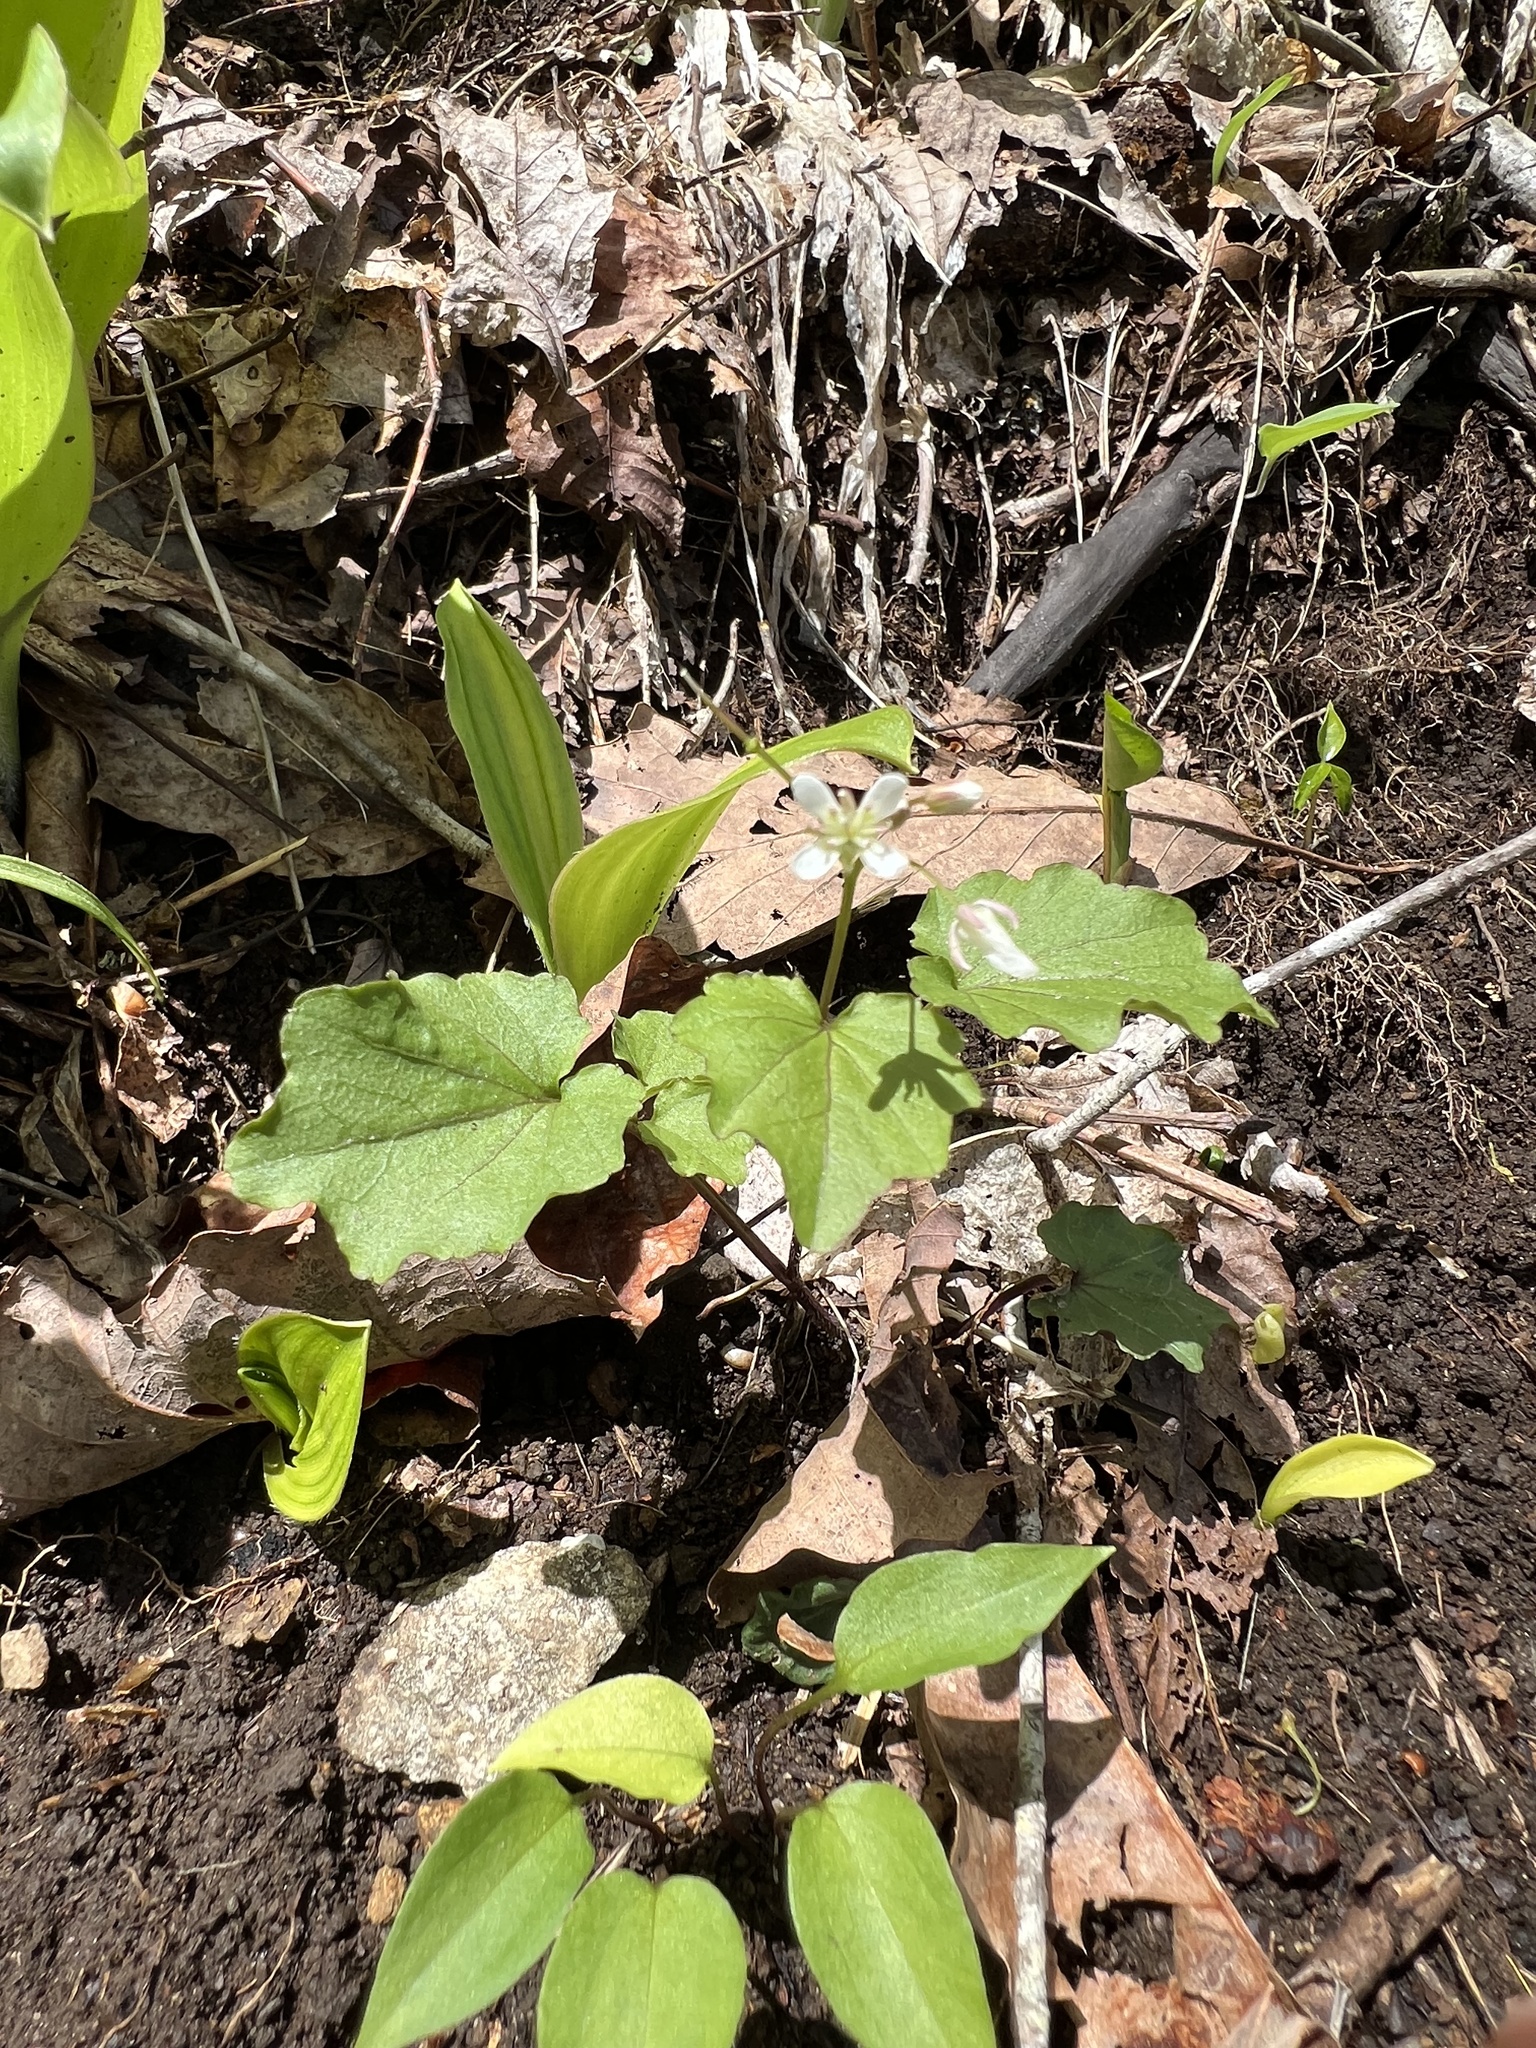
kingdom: Plantae
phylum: Tracheophyta
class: Magnoliopsida
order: Brassicales
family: Brassicaceae
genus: Cardamine
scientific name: Cardamine flagellifera
